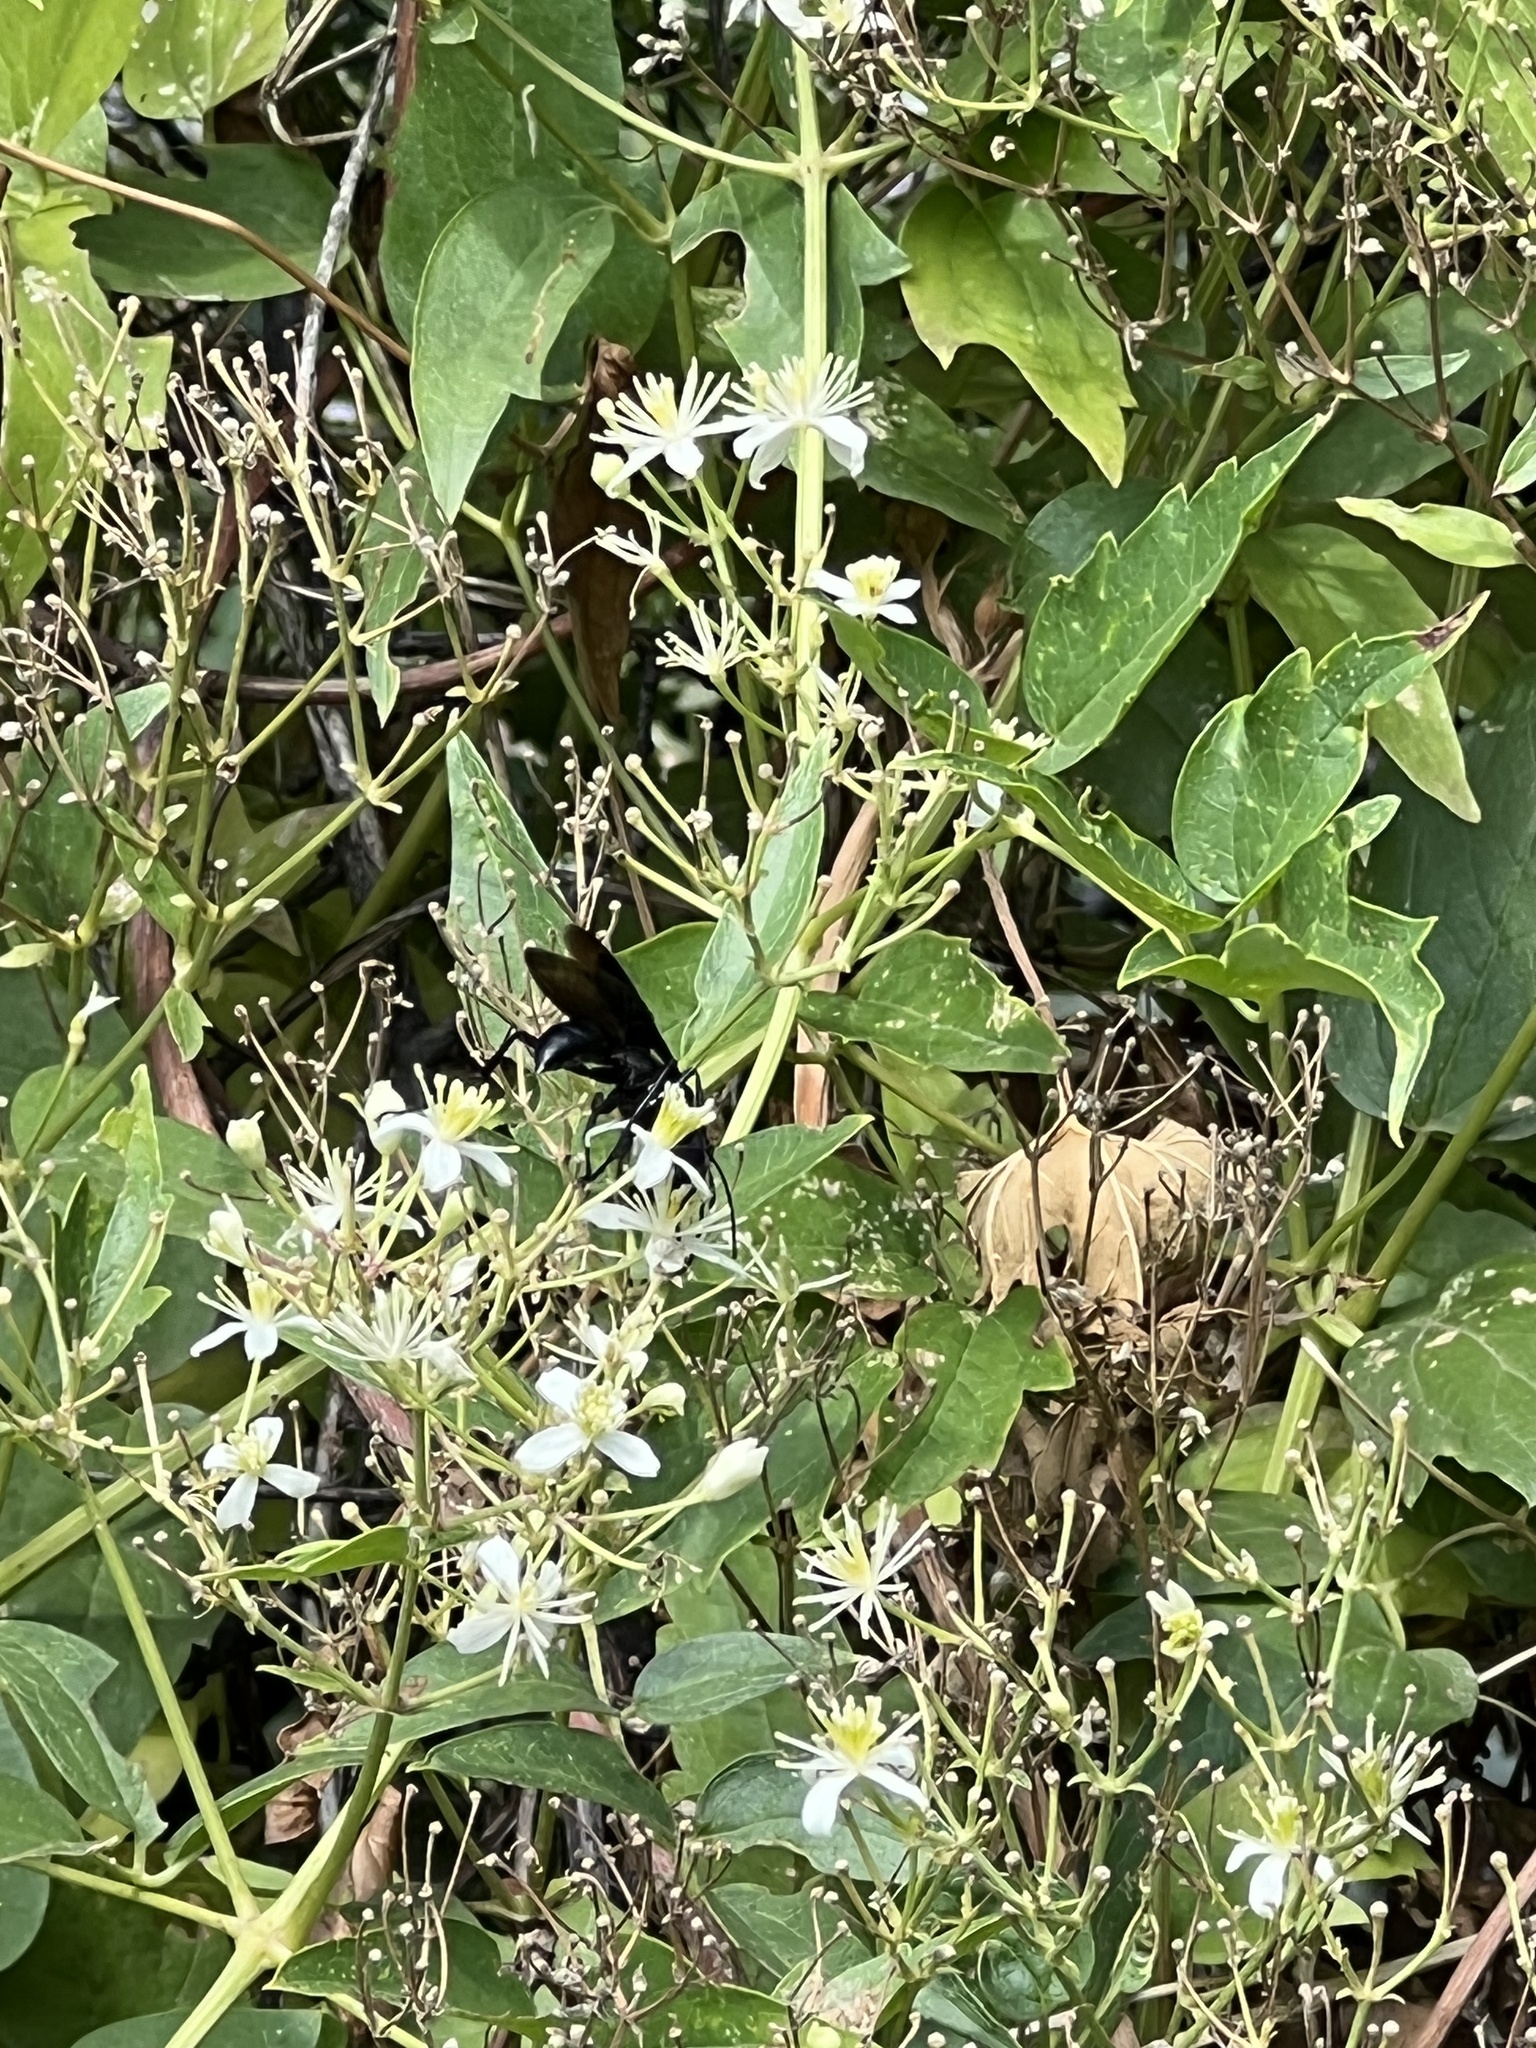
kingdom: Plantae
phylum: Tracheophyta
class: Magnoliopsida
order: Ranunculales
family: Ranunculaceae
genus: Clematis
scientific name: Clematis ligusticifolia
